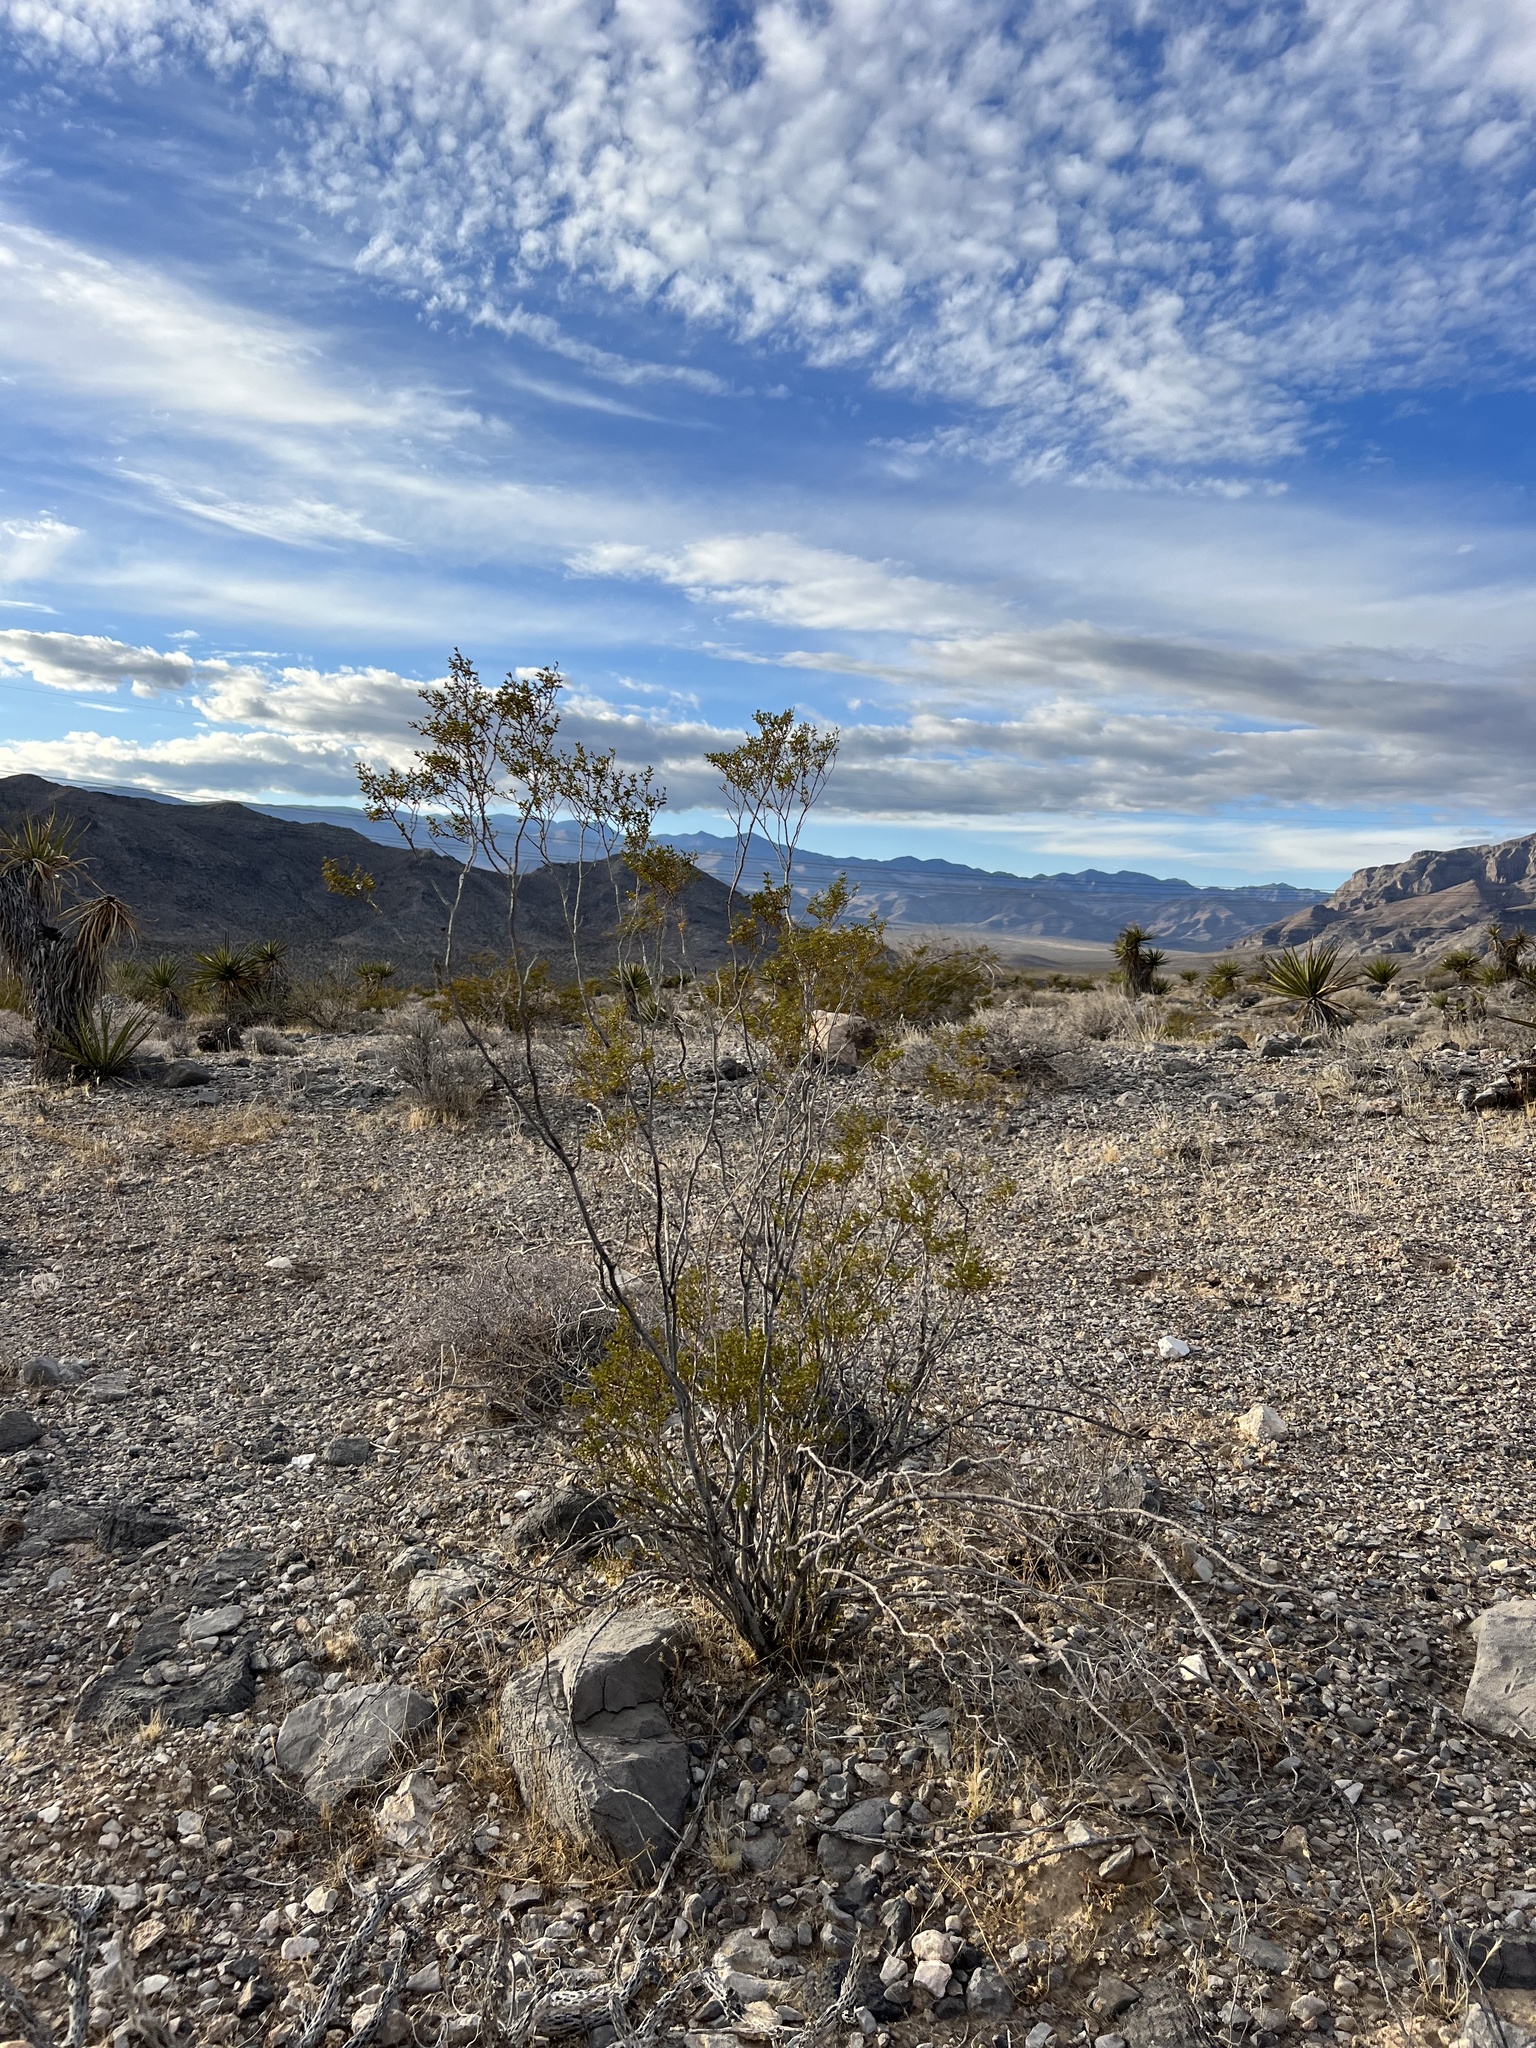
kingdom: Plantae
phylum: Tracheophyta
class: Magnoliopsida
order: Zygophyllales
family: Zygophyllaceae
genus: Larrea
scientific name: Larrea tridentata
